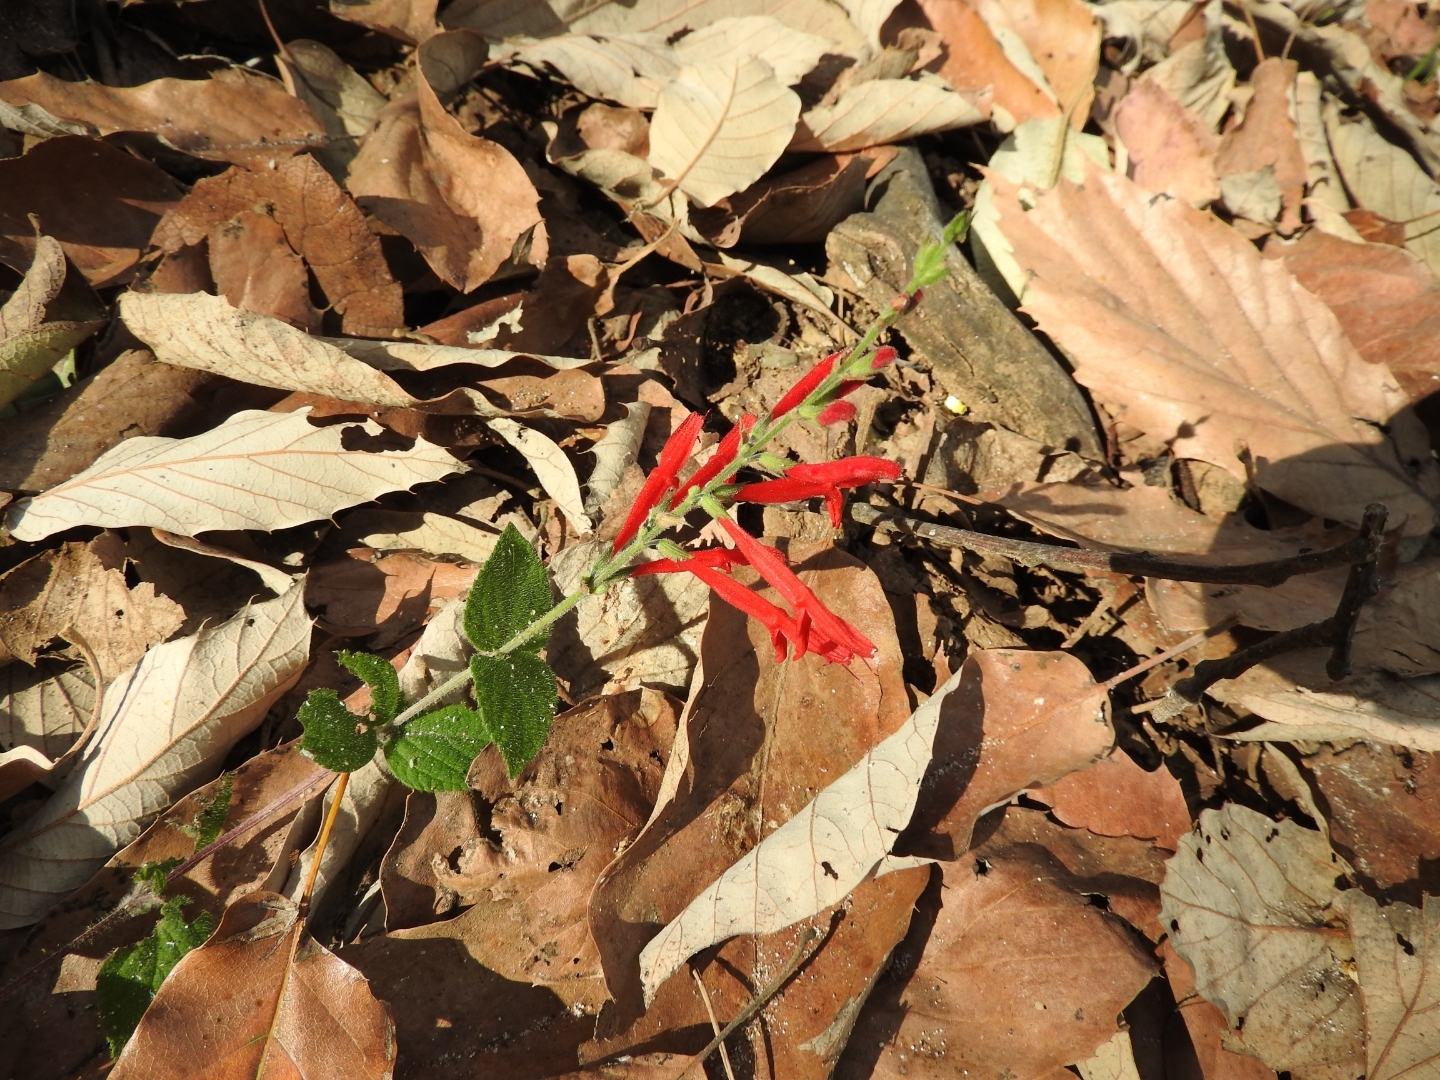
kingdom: Plantae
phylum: Tracheophyta
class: Magnoliopsida
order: Lamiales
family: Lamiaceae
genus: Salvia
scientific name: Salvia elegans
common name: Pineapple sage
